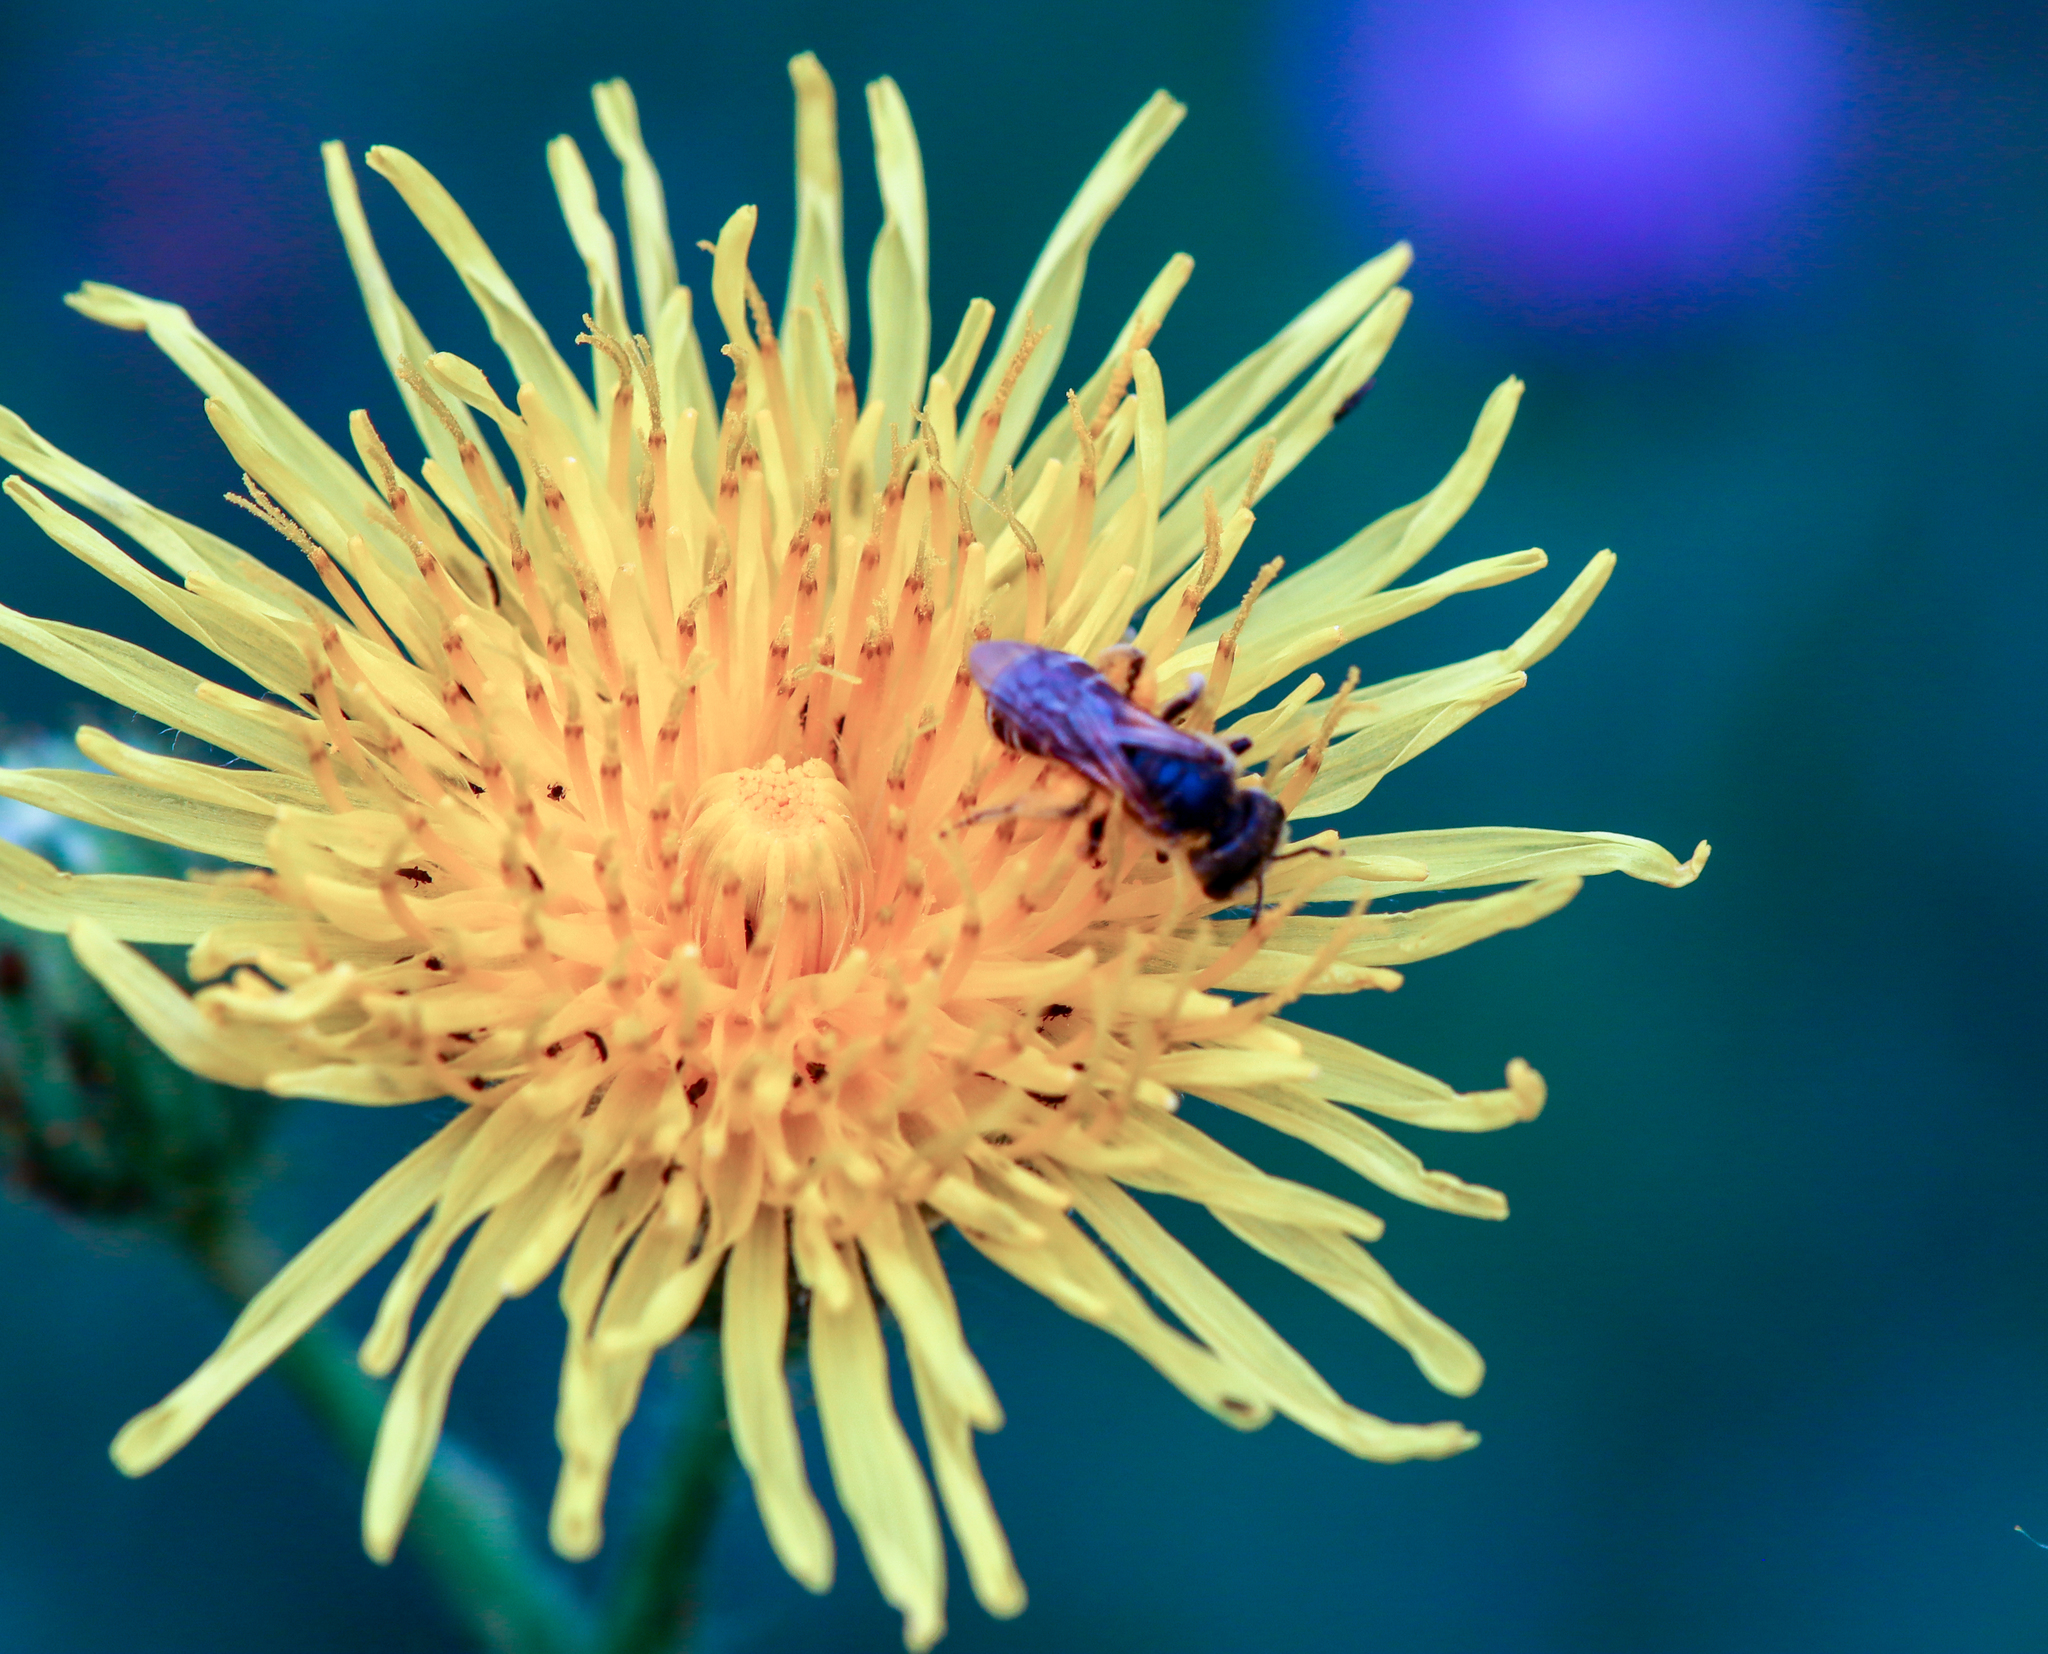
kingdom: Animalia
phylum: Arthropoda
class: Insecta
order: Hymenoptera
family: Halictidae
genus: Halictus
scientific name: Halictus ligatus
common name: Ligated furrow bee
